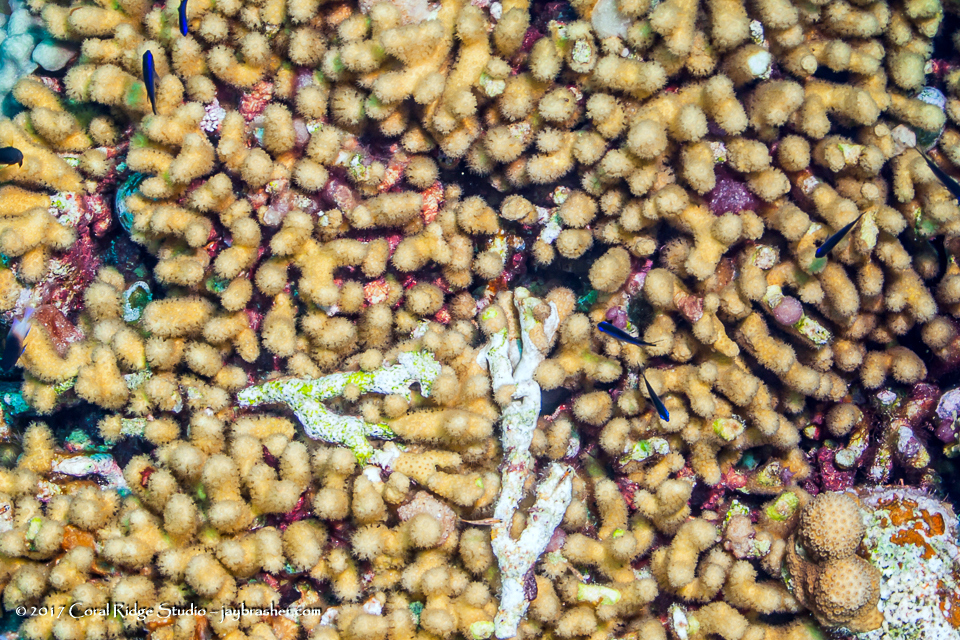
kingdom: Animalia
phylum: Cnidaria
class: Anthozoa
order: Scleractinia
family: Pocilloporidae
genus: Madracis
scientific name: Madracis auretenra
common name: Yellow pencil coral
